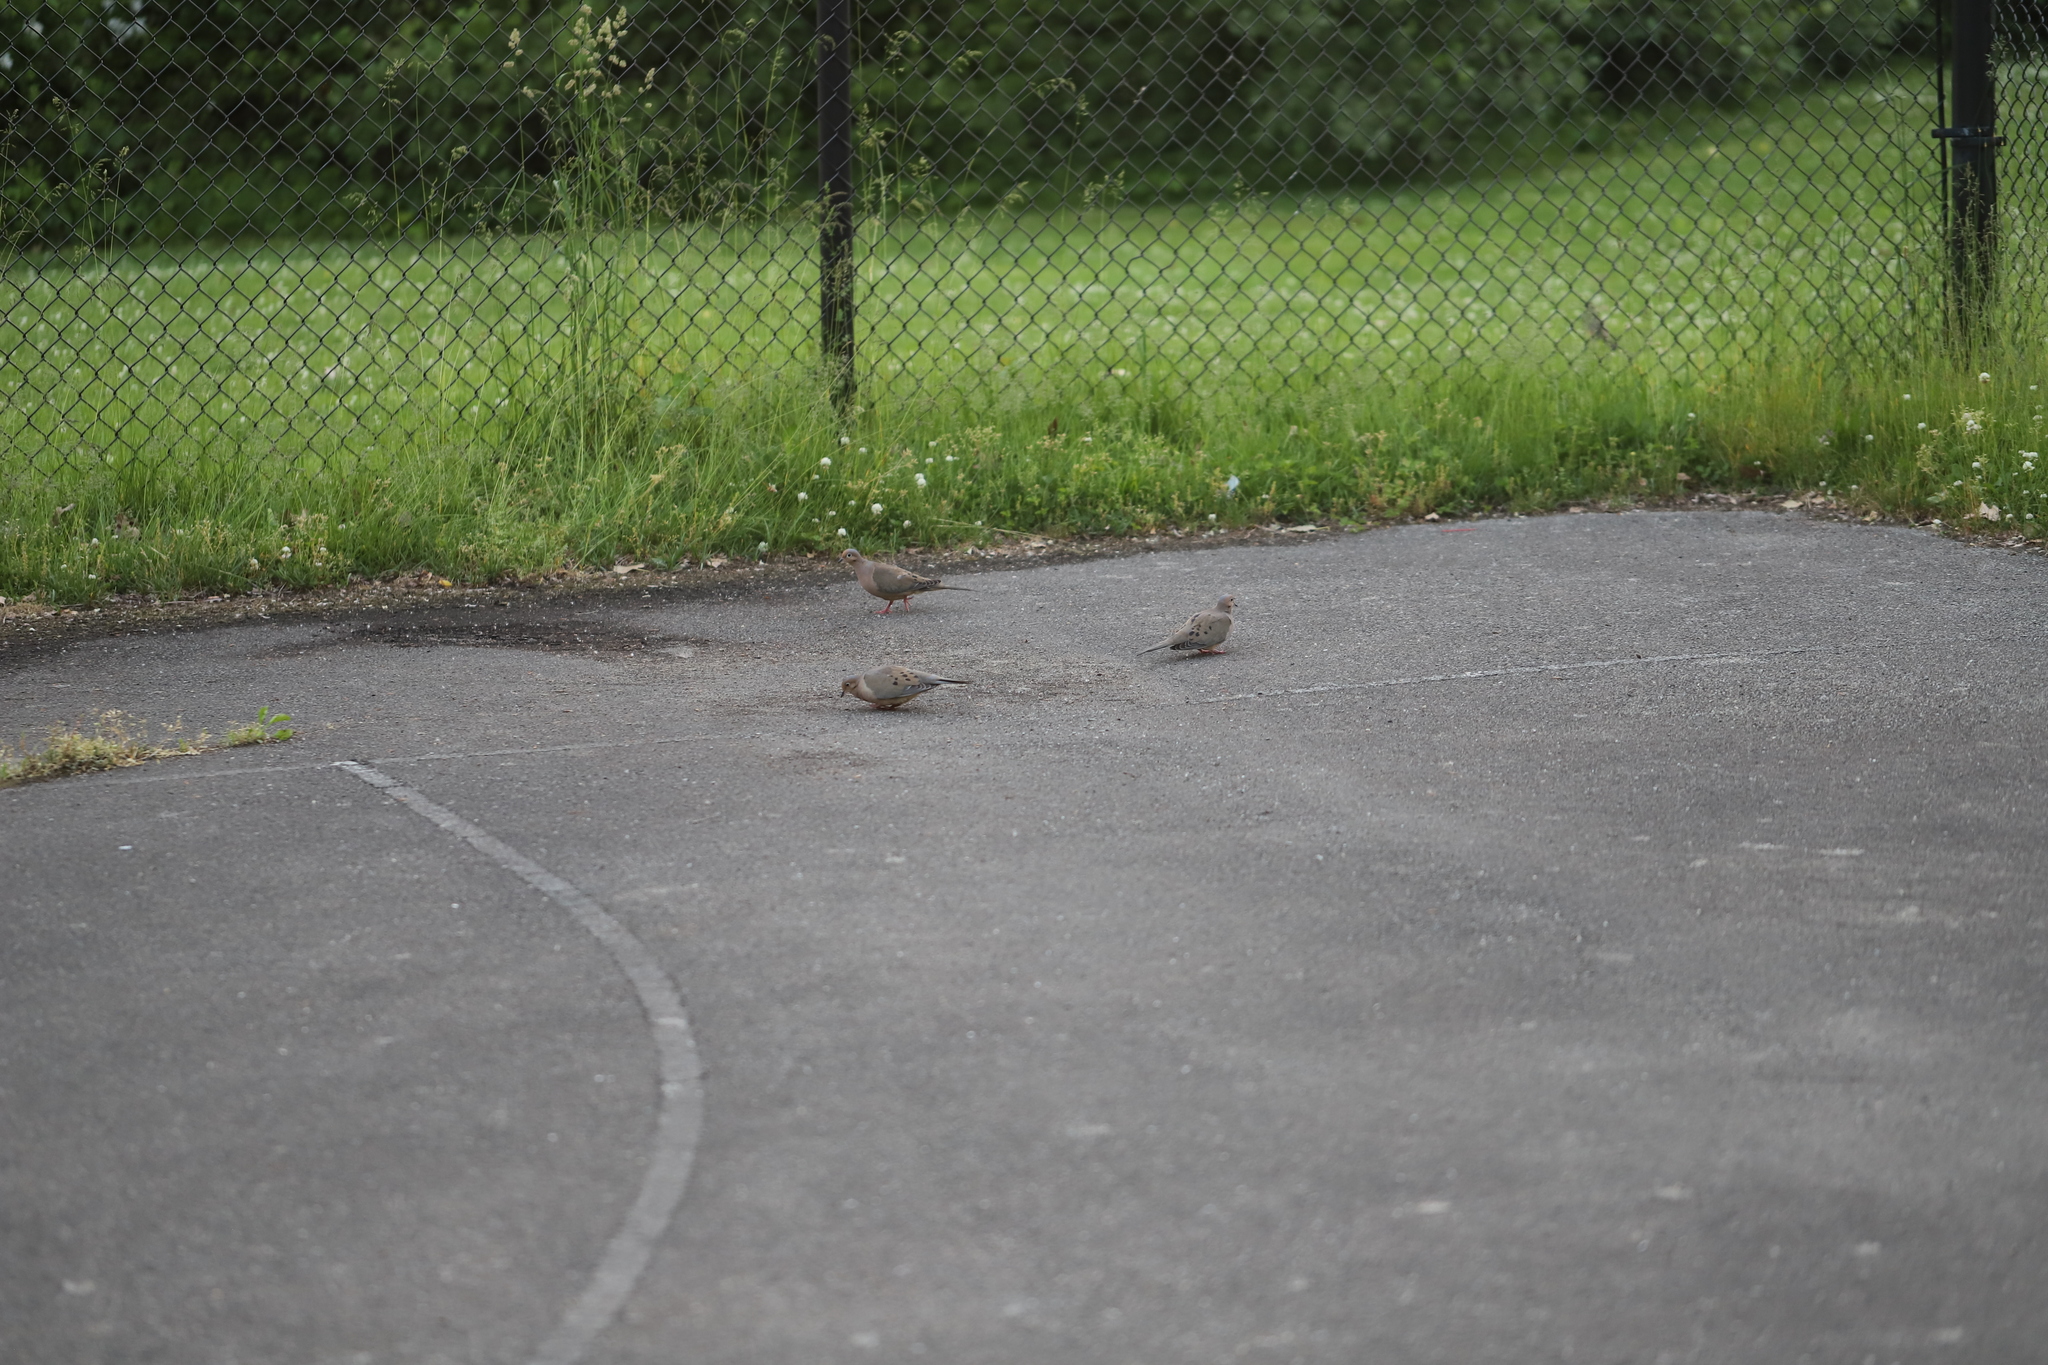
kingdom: Animalia
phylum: Chordata
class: Aves
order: Columbiformes
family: Columbidae
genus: Zenaida
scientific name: Zenaida macroura
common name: Mourning dove
